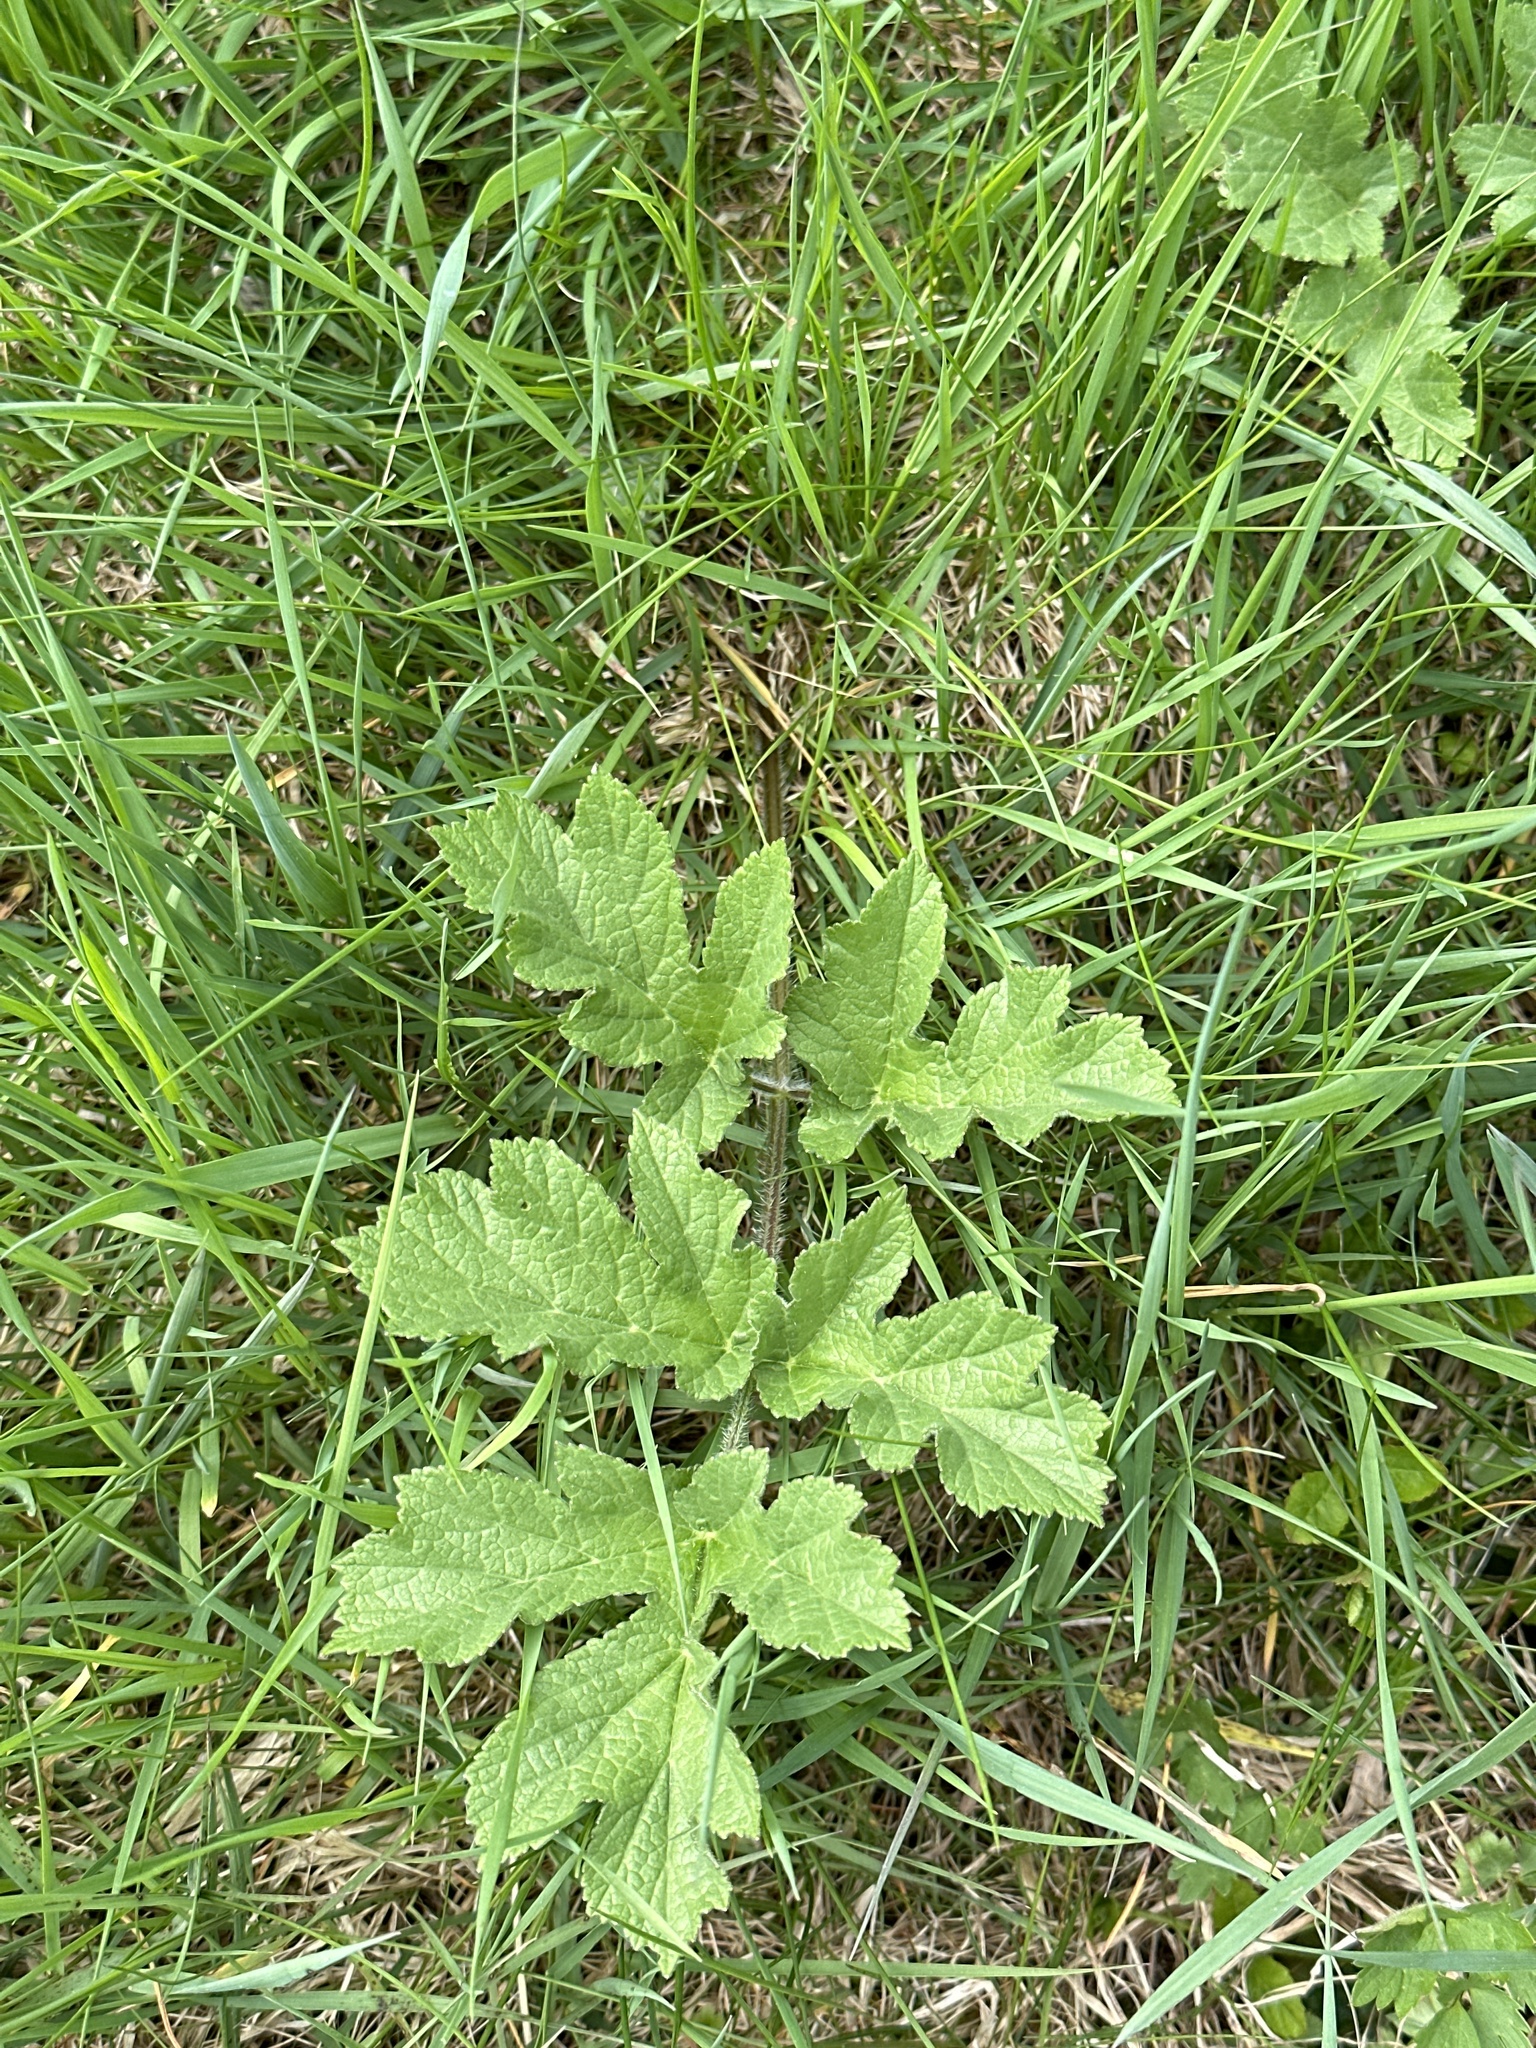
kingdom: Plantae
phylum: Tracheophyta
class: Magnoliopsida
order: Apiales
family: Apiaceae
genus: Heracleum
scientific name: Heracleum sphondylium
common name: Hogweed
